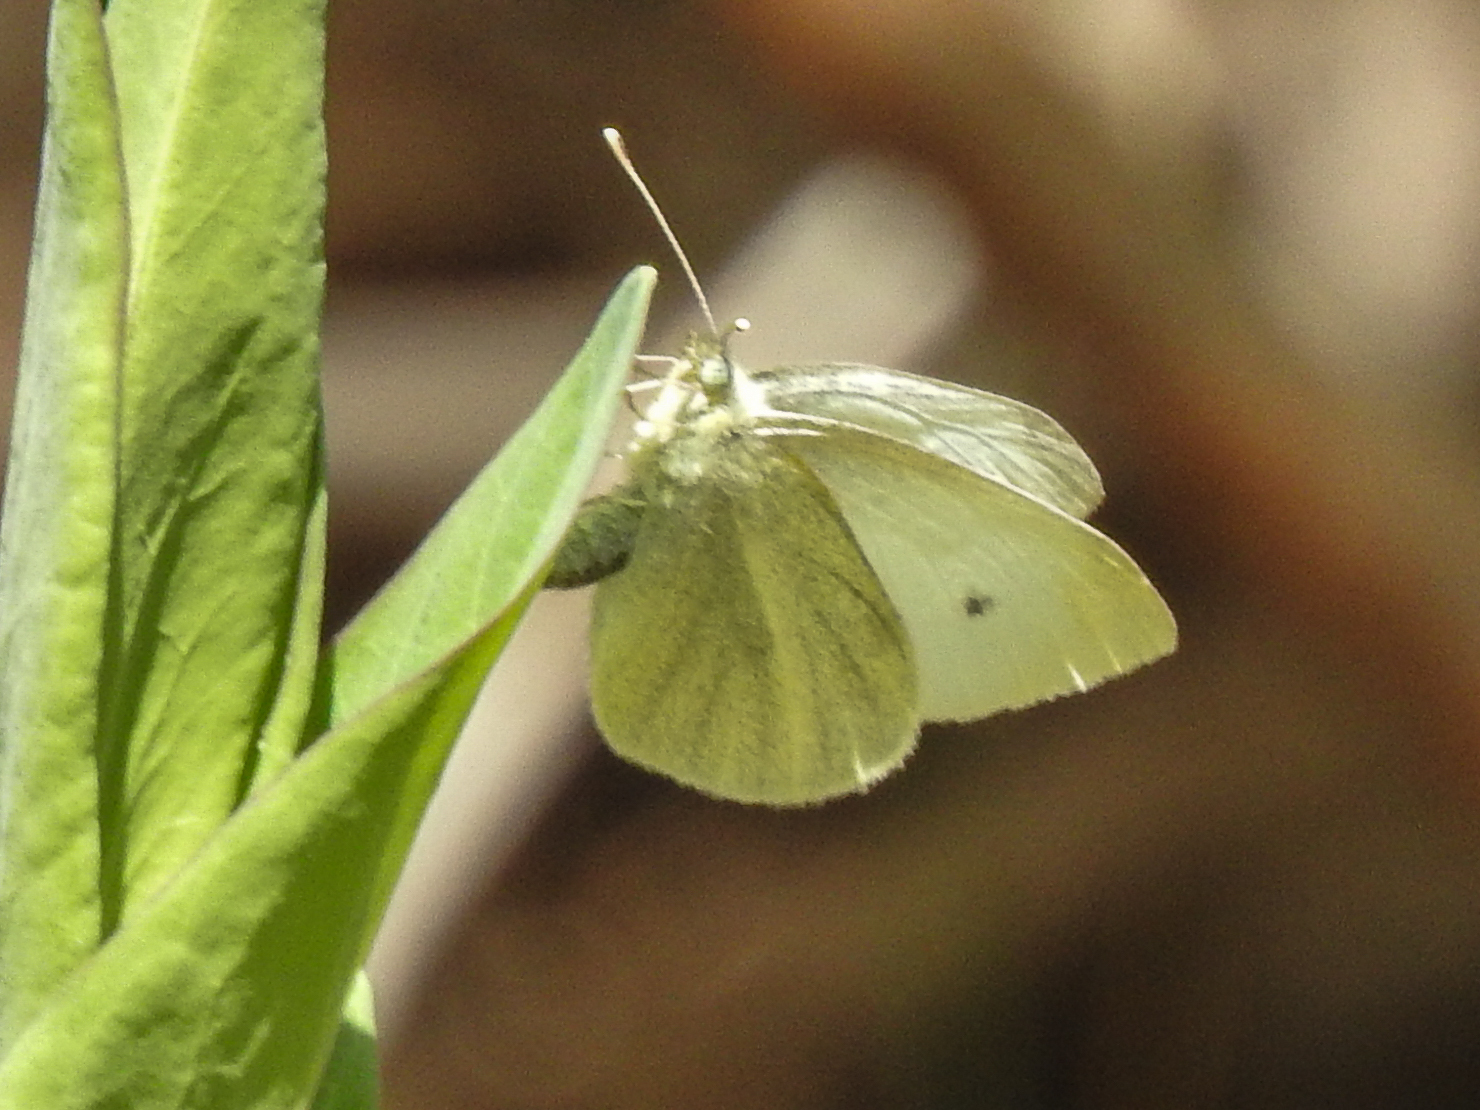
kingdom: Animalia
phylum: Arthropoda
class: Insecta
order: Lepidoptera
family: Pieridae
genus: Pieris
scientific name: Pieris rapae
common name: Small white
